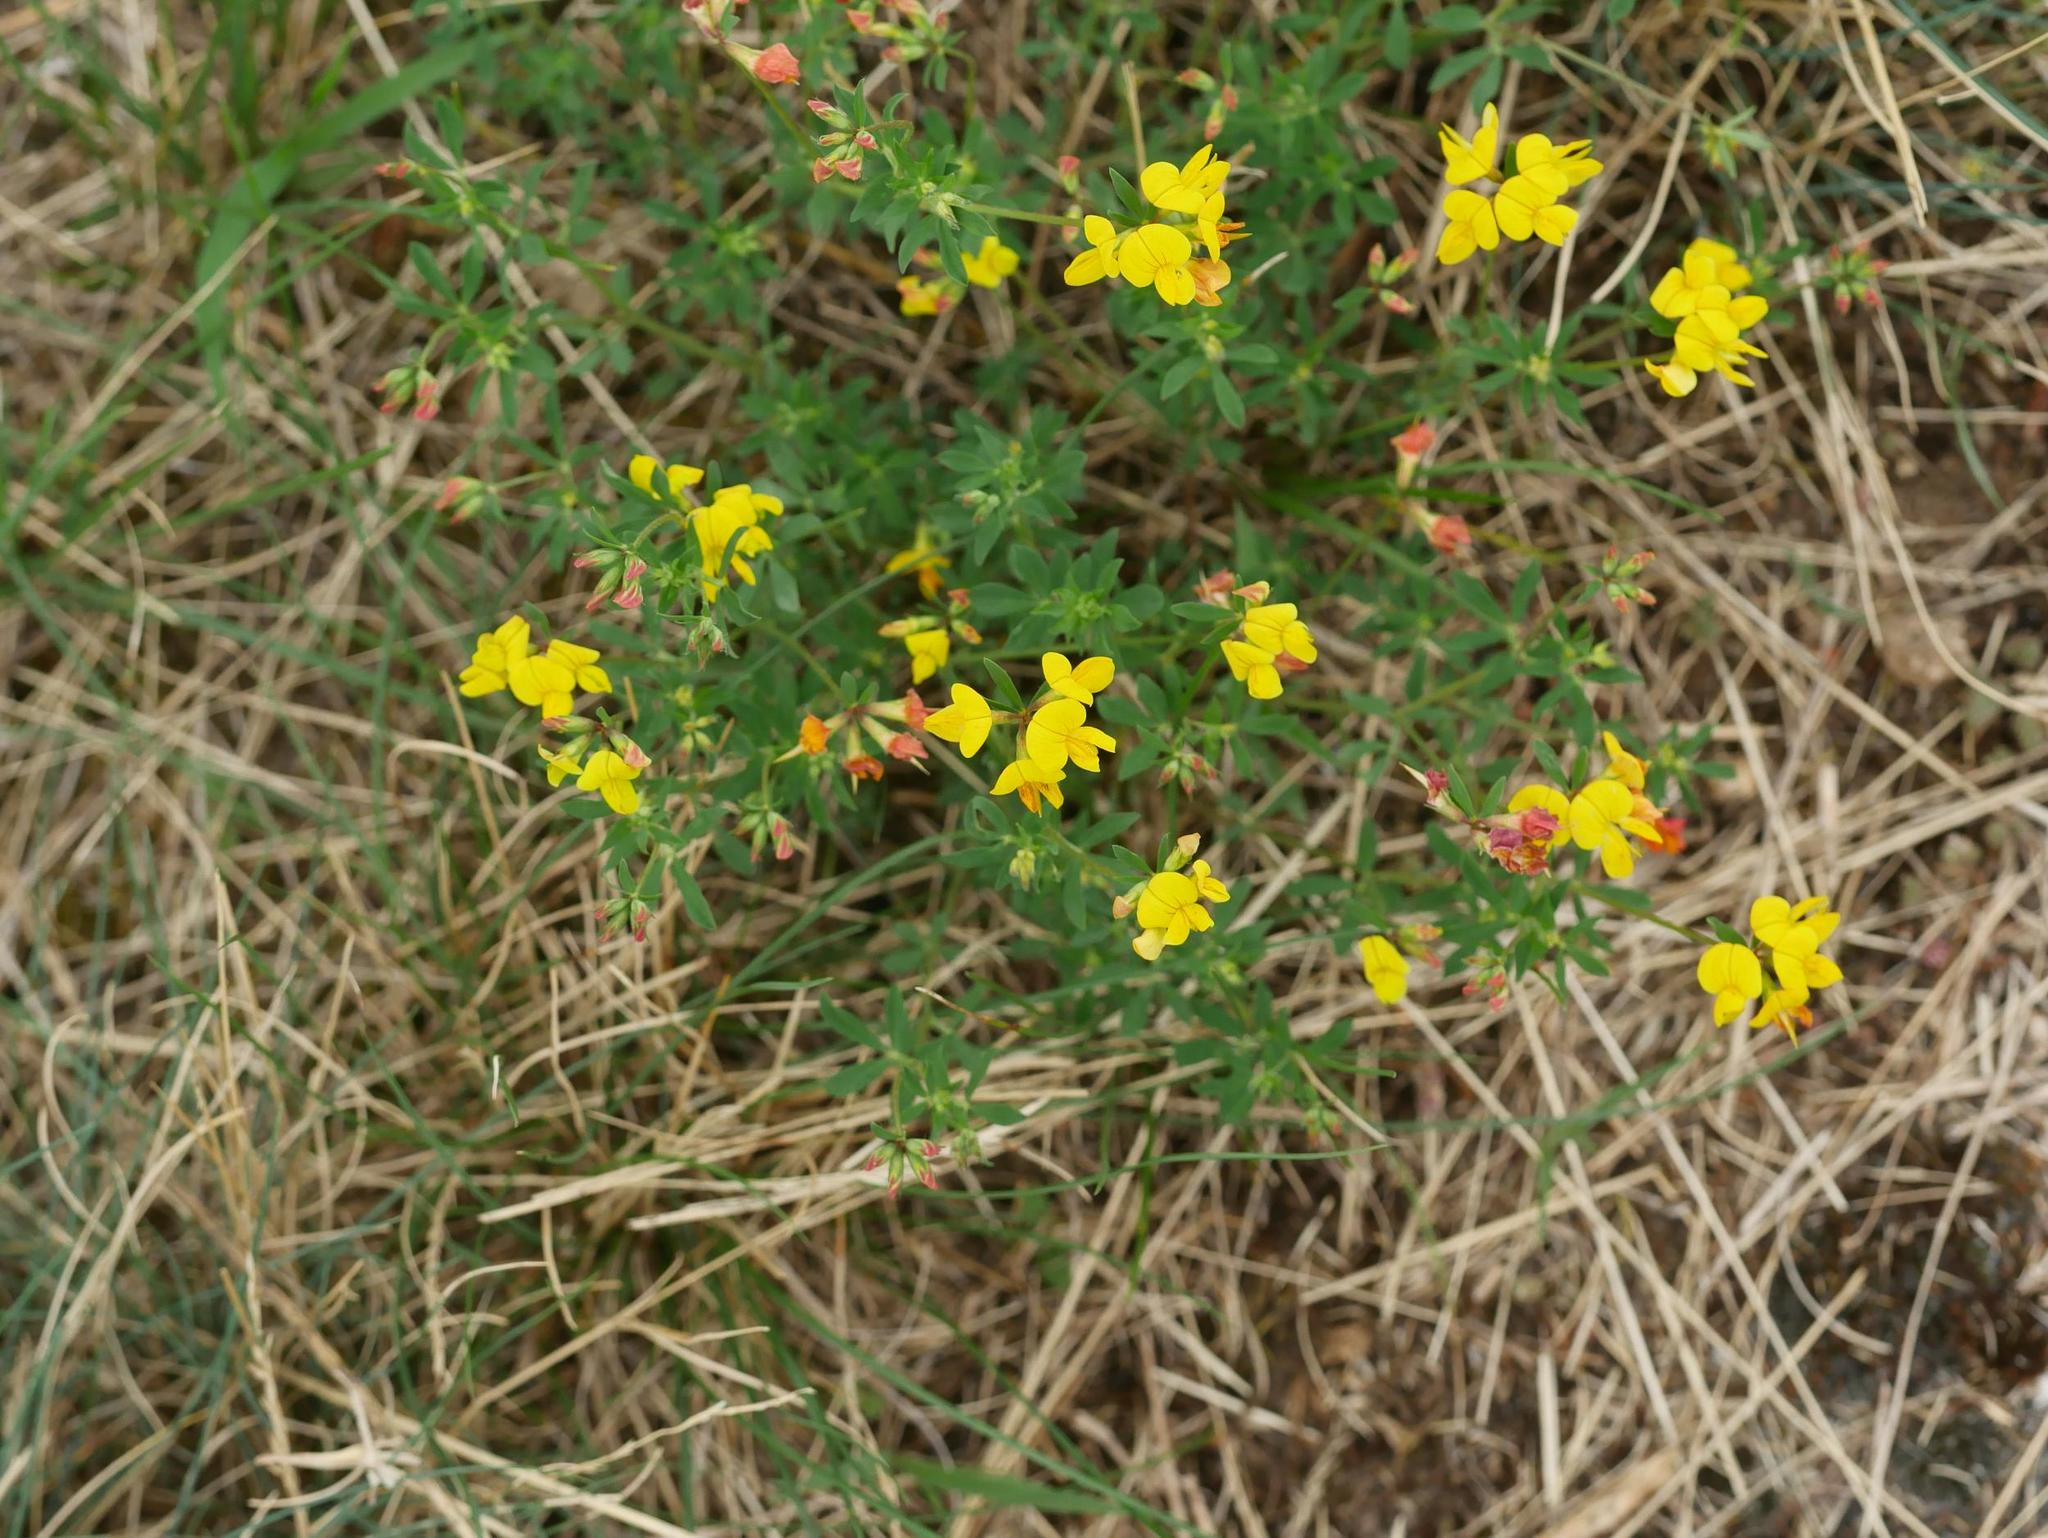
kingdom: Plantae
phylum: Tracheophyta
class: Magnoliopsida
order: Fabales
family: Fabaceae
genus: Lotus
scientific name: Lotus corniculatus
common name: Common bird's-foot-trefoil
